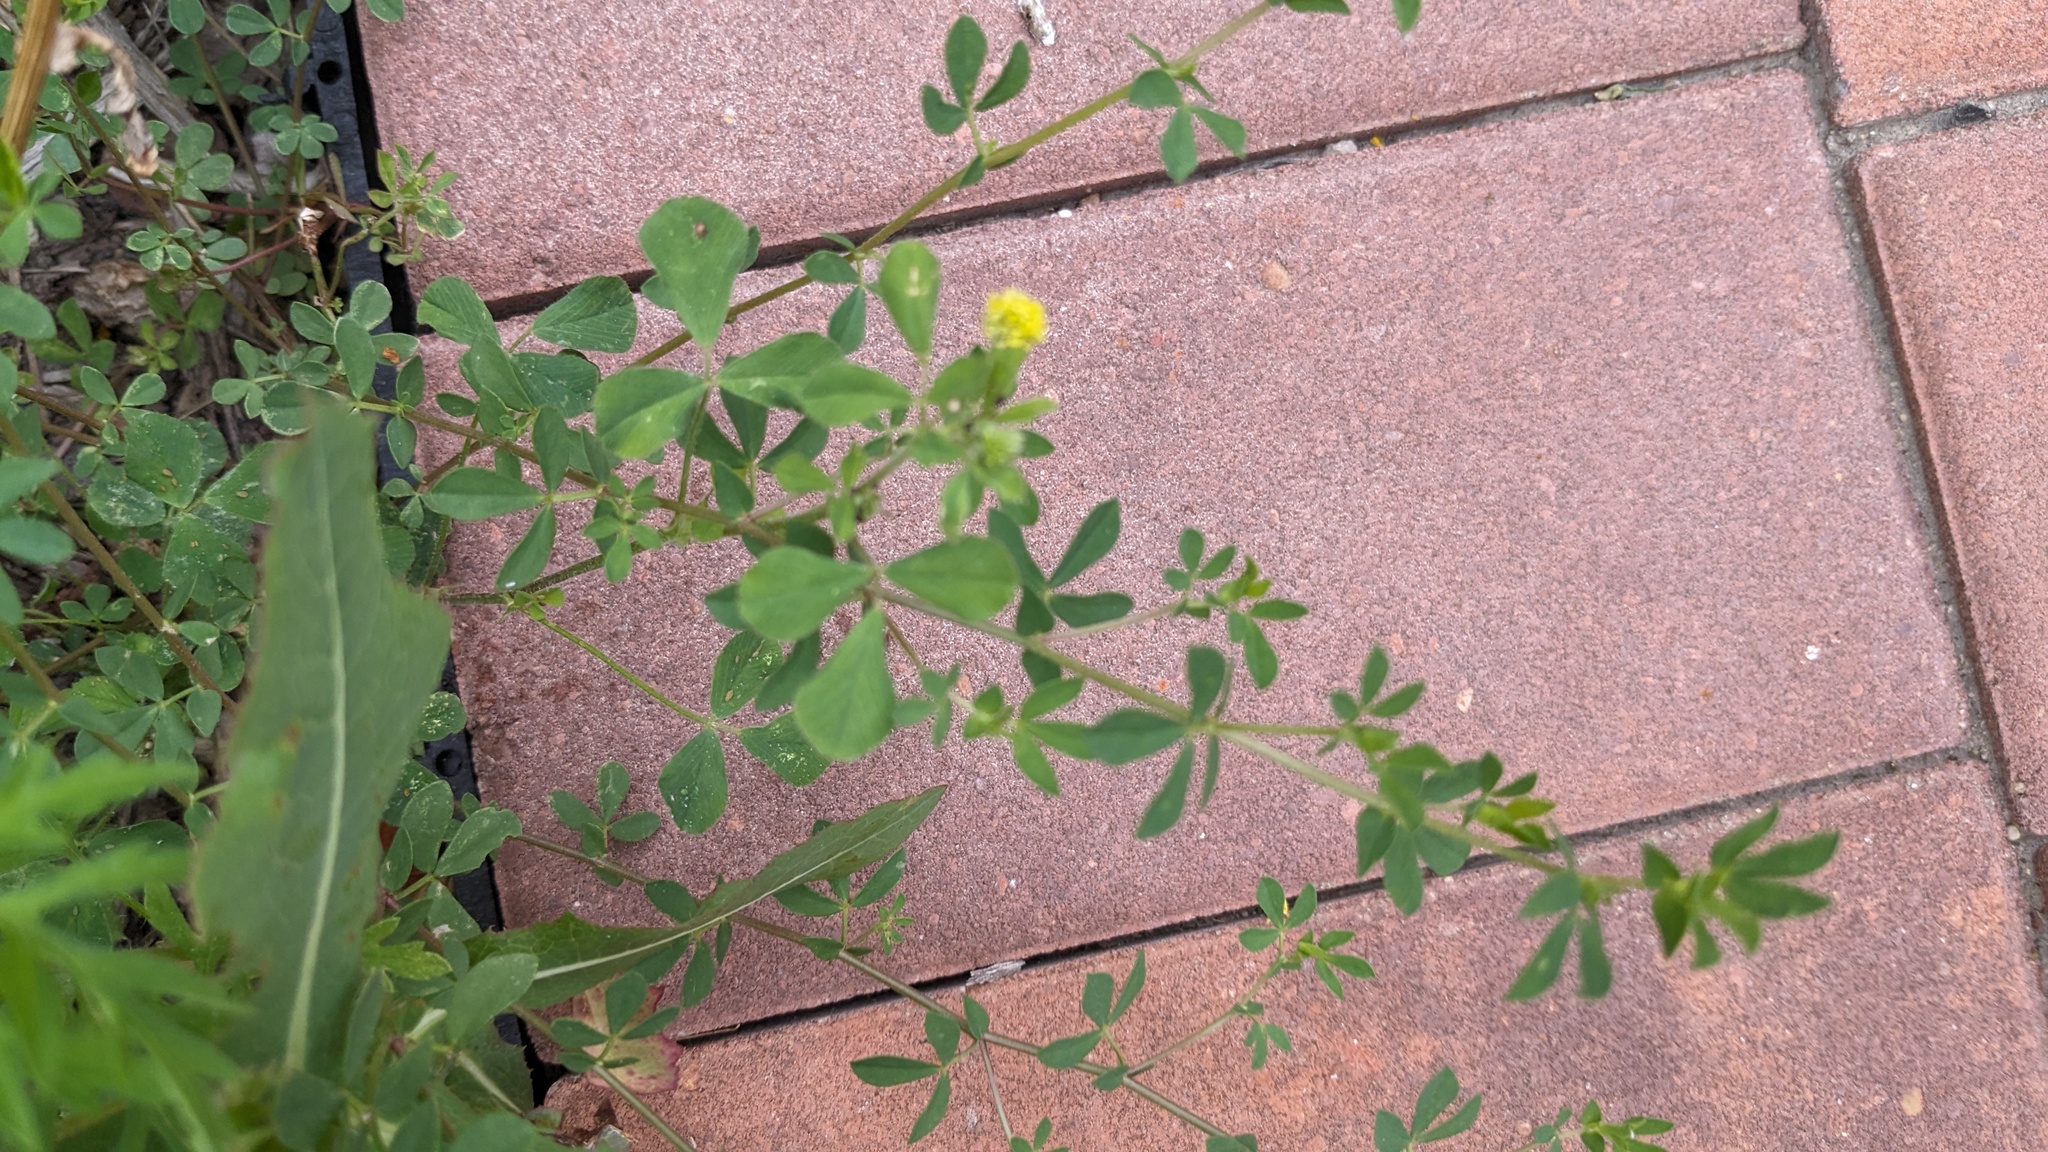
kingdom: Plantae
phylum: Tracheophyta
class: Magnoliopsida
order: Fabales
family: Fabaceae
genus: Medicago
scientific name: Medicago lupulina
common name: Black medick
